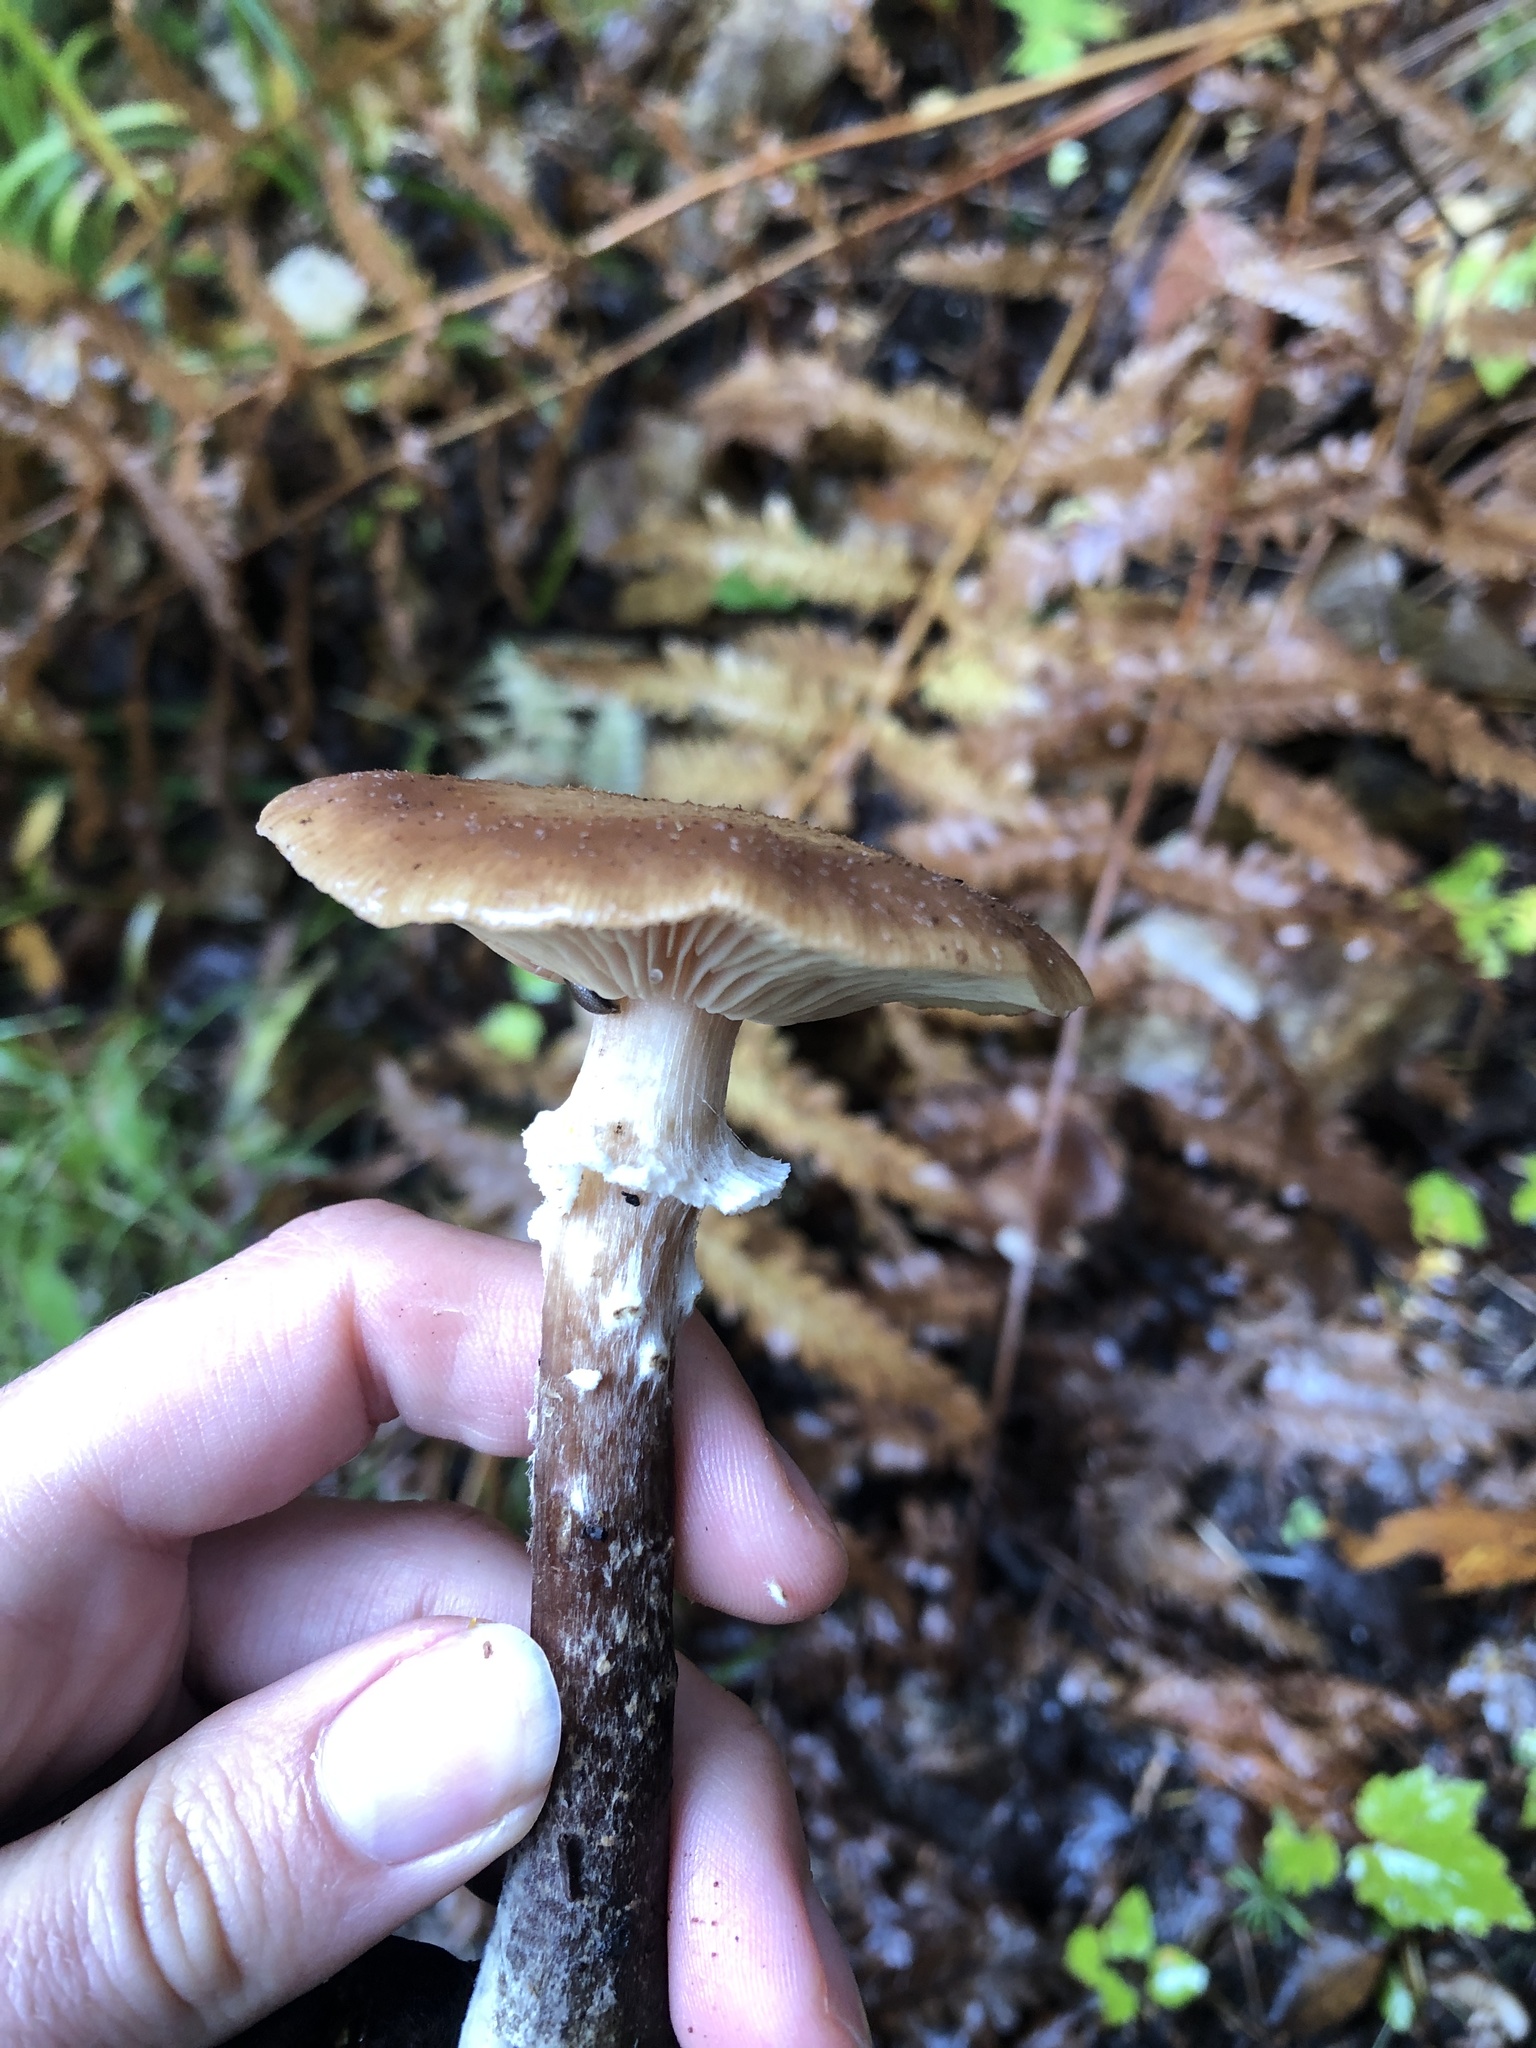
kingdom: Fungi
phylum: Basidiomycota
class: Agaricomycetes
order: Agaricales
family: Physalacriaceae
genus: Armillaria
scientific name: Armillaria ostoyae
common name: Dark honey fungus
